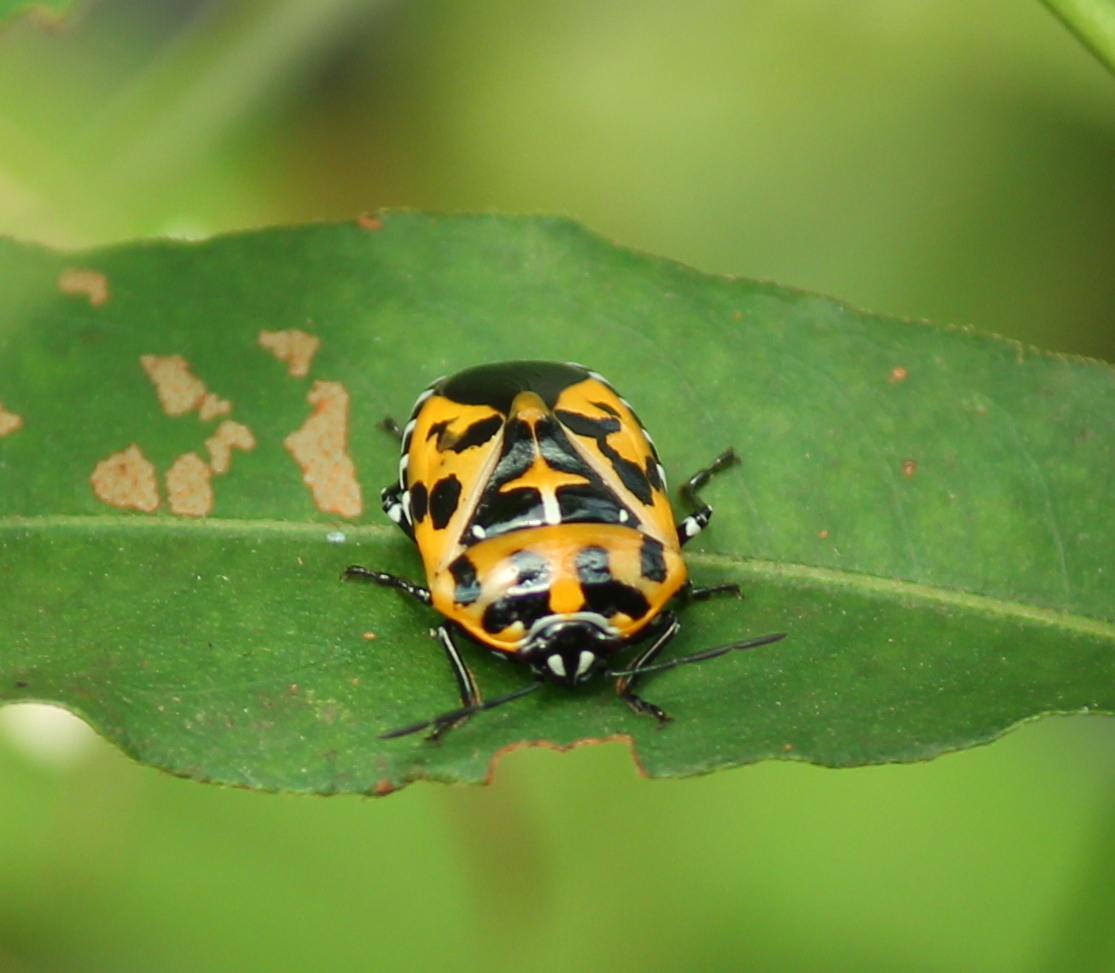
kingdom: Animalia
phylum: Arthropoda
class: Insecta
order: Hemiptera
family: Pentatomidae
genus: Murgantia
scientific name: Murgantia histrionica
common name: Harlequin bug
